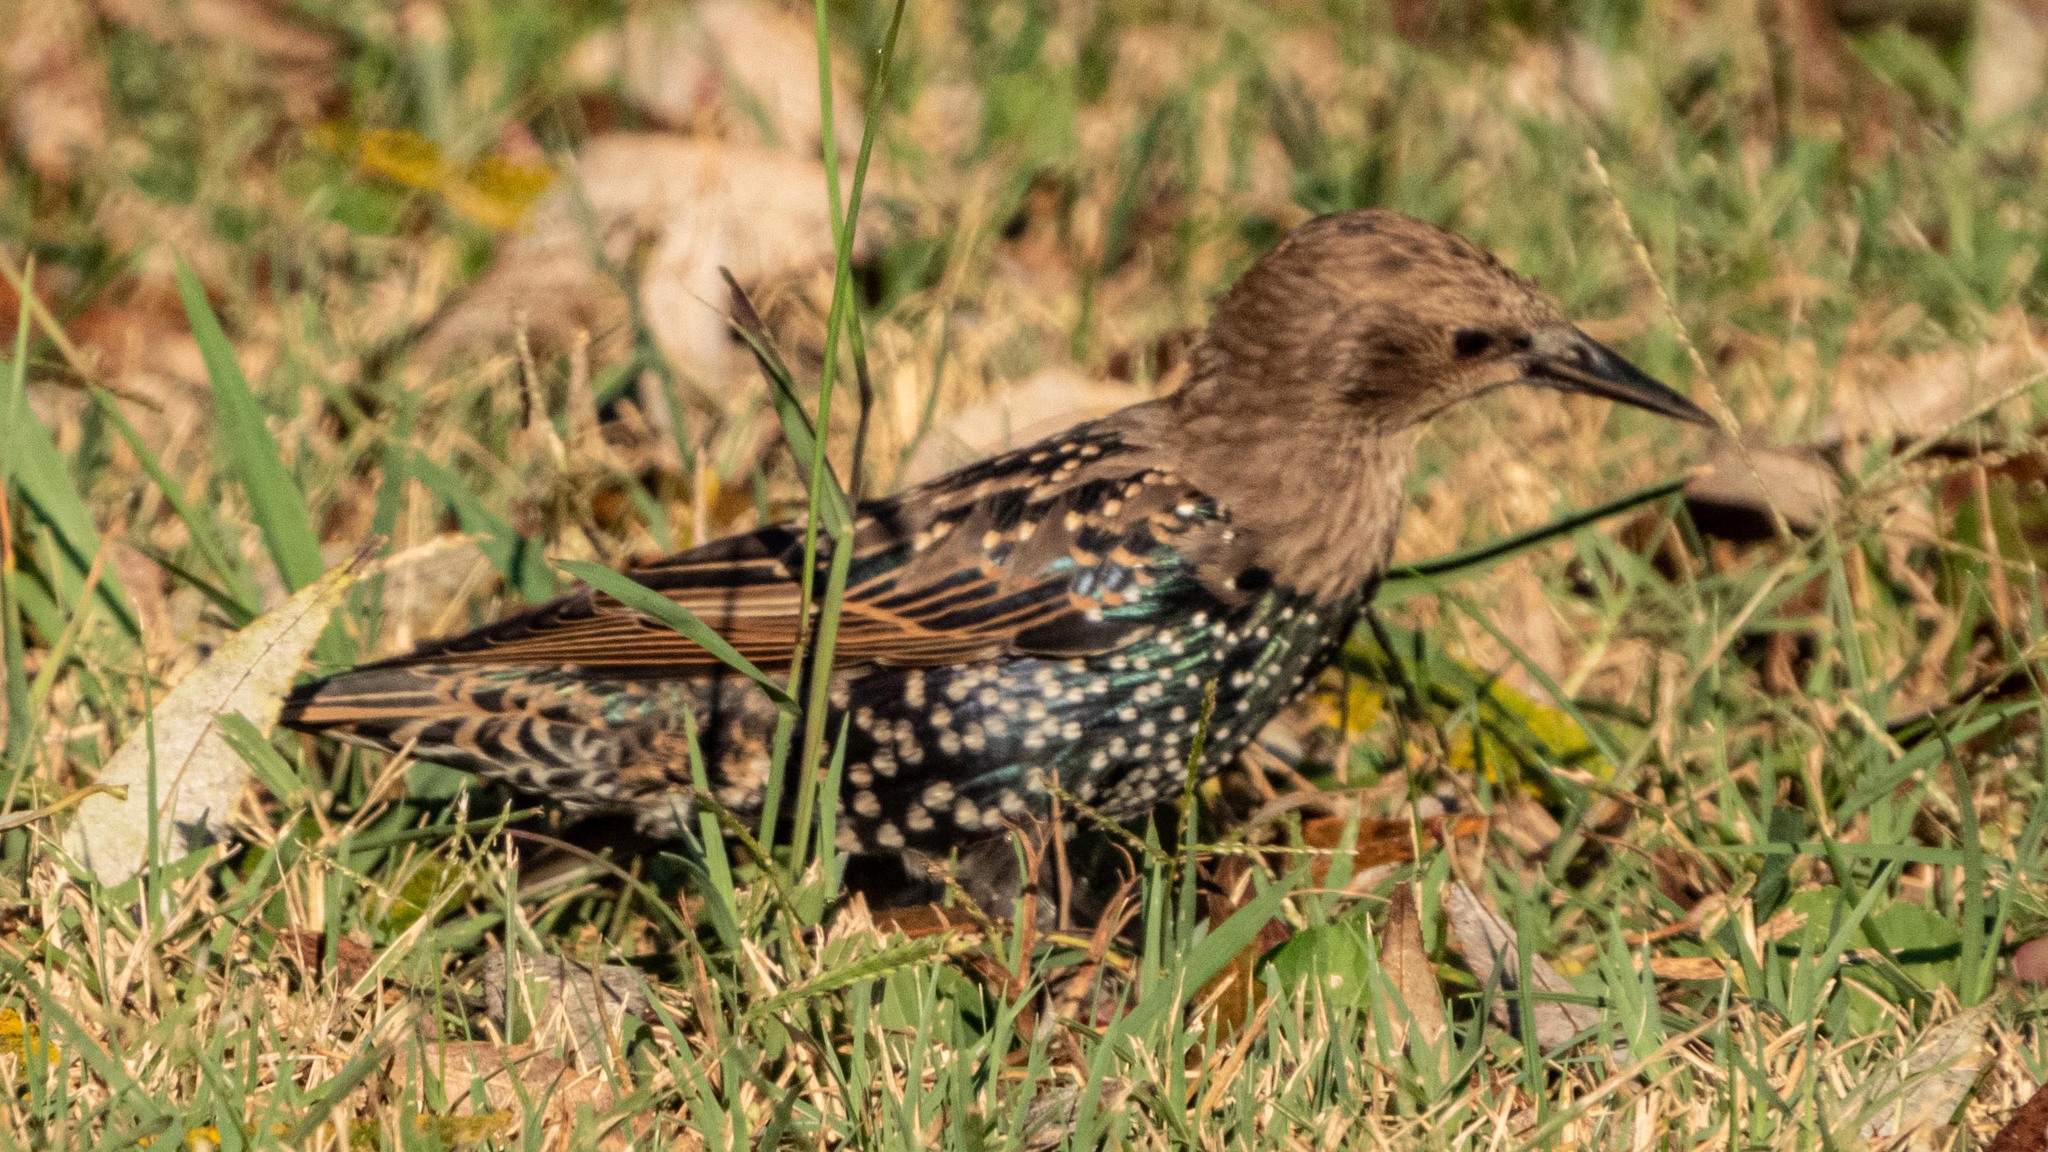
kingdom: Animalia
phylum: Chordata
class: Aves
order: Passeriformes
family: Sturnidae
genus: Sturnus
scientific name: Sturnus vulgaris
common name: Common starling
